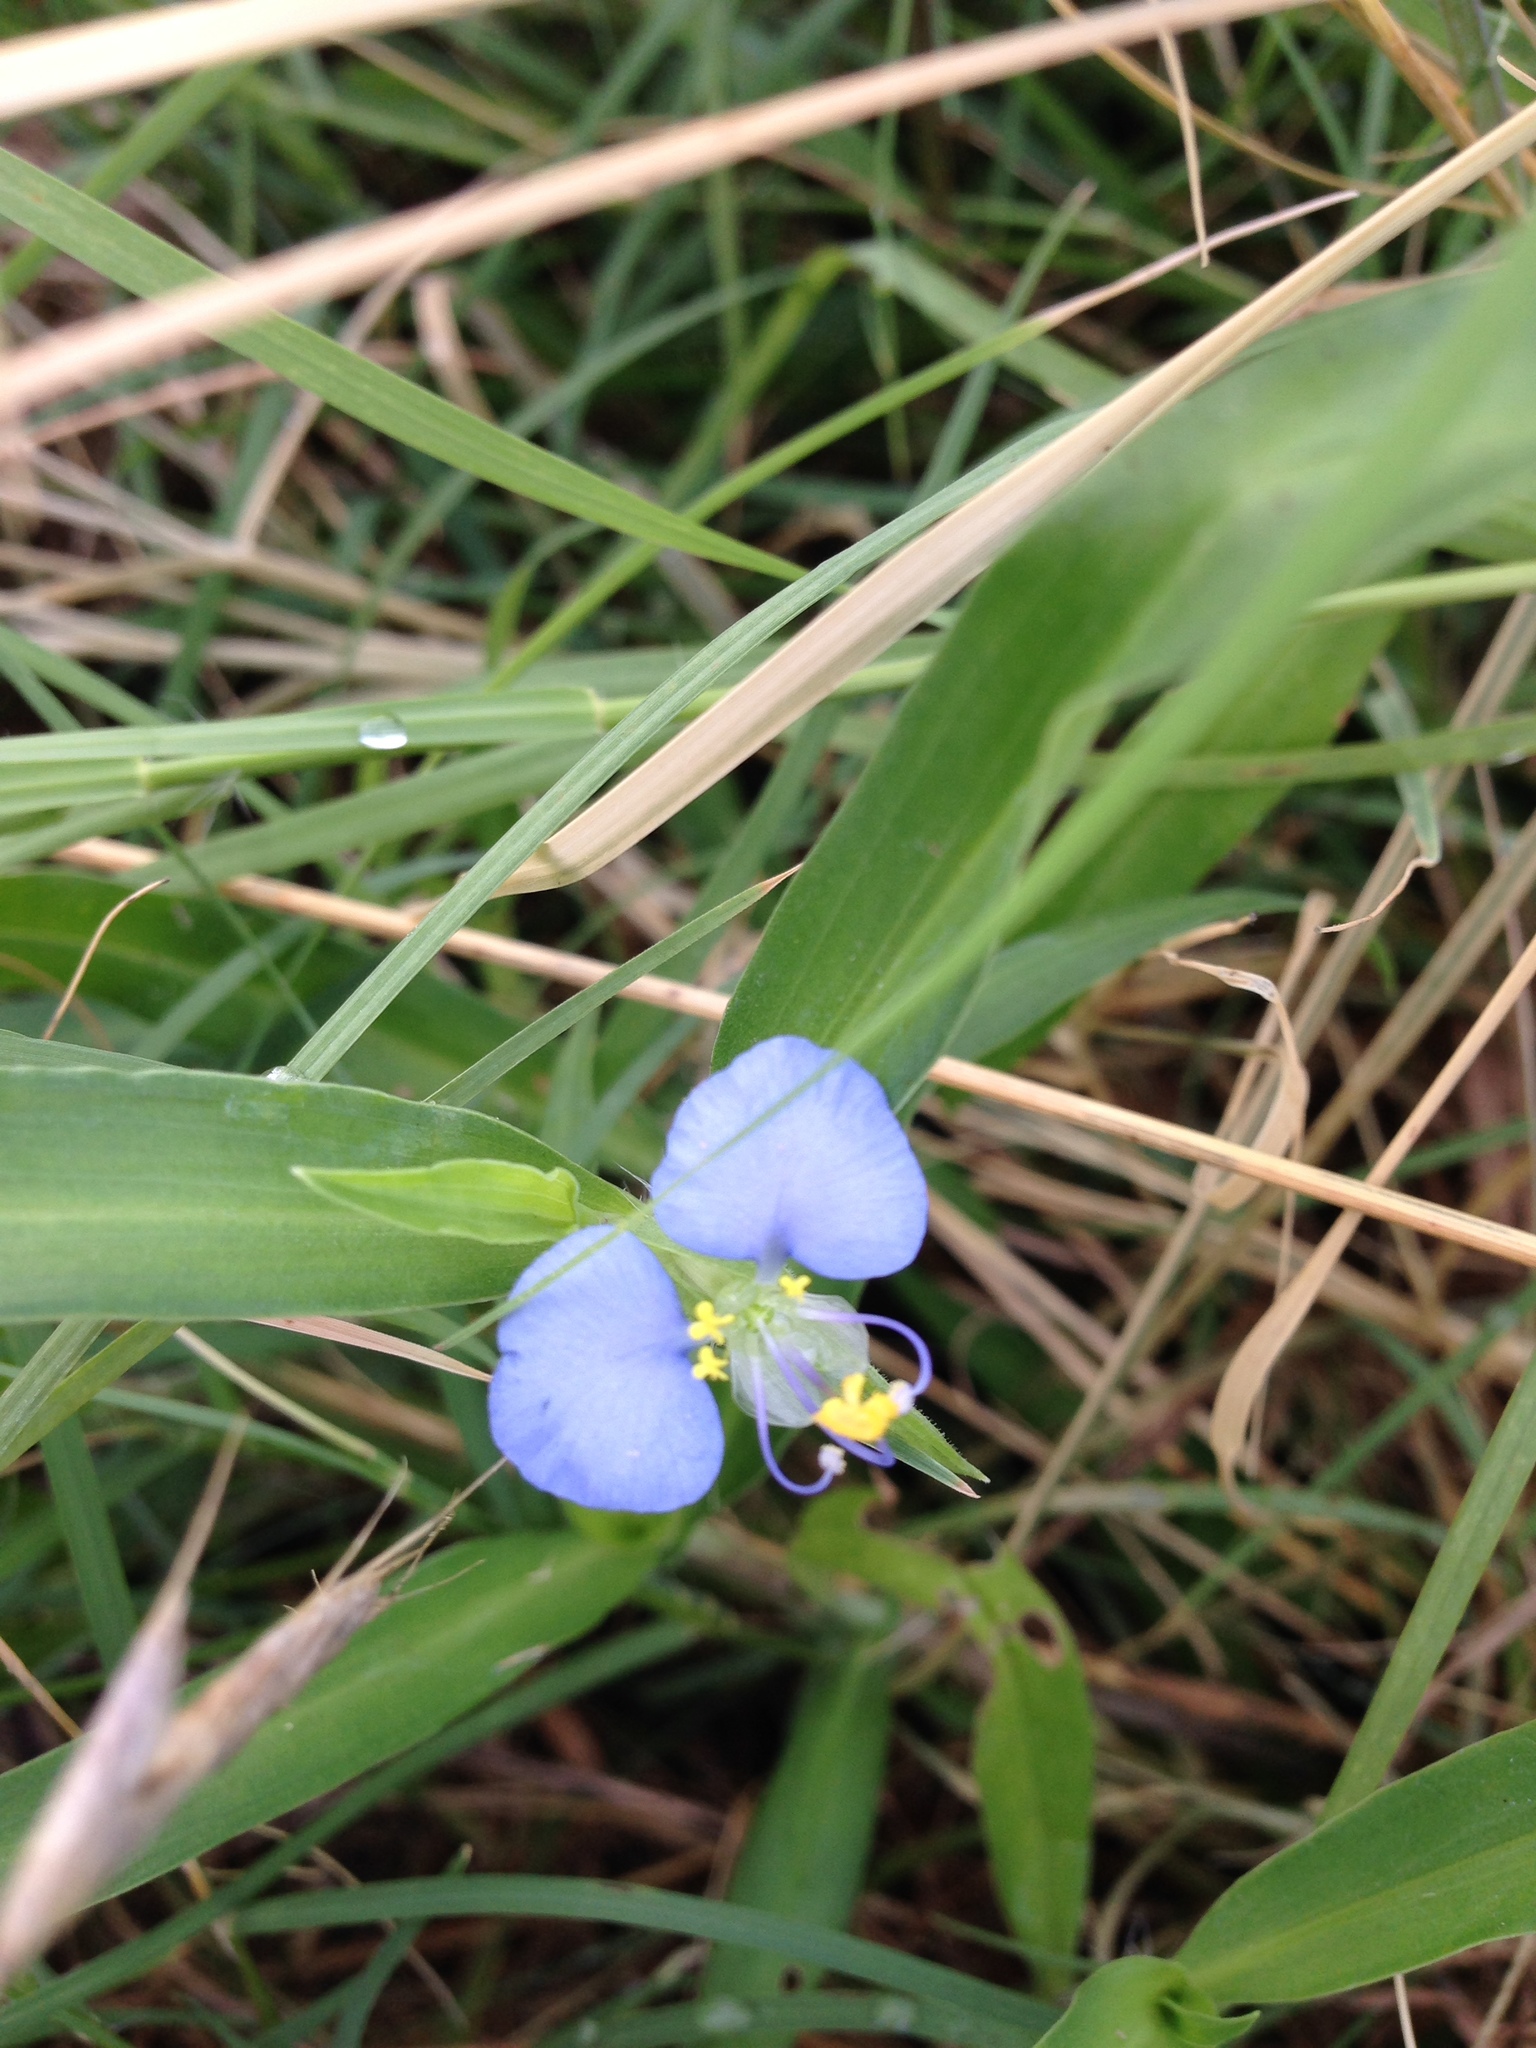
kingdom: Plantae
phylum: Tracheophyta
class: Liliopsida
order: Commelinales
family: Commelinaceae
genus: Commelina
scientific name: Commelina erecta
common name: Blousel blommetjie
